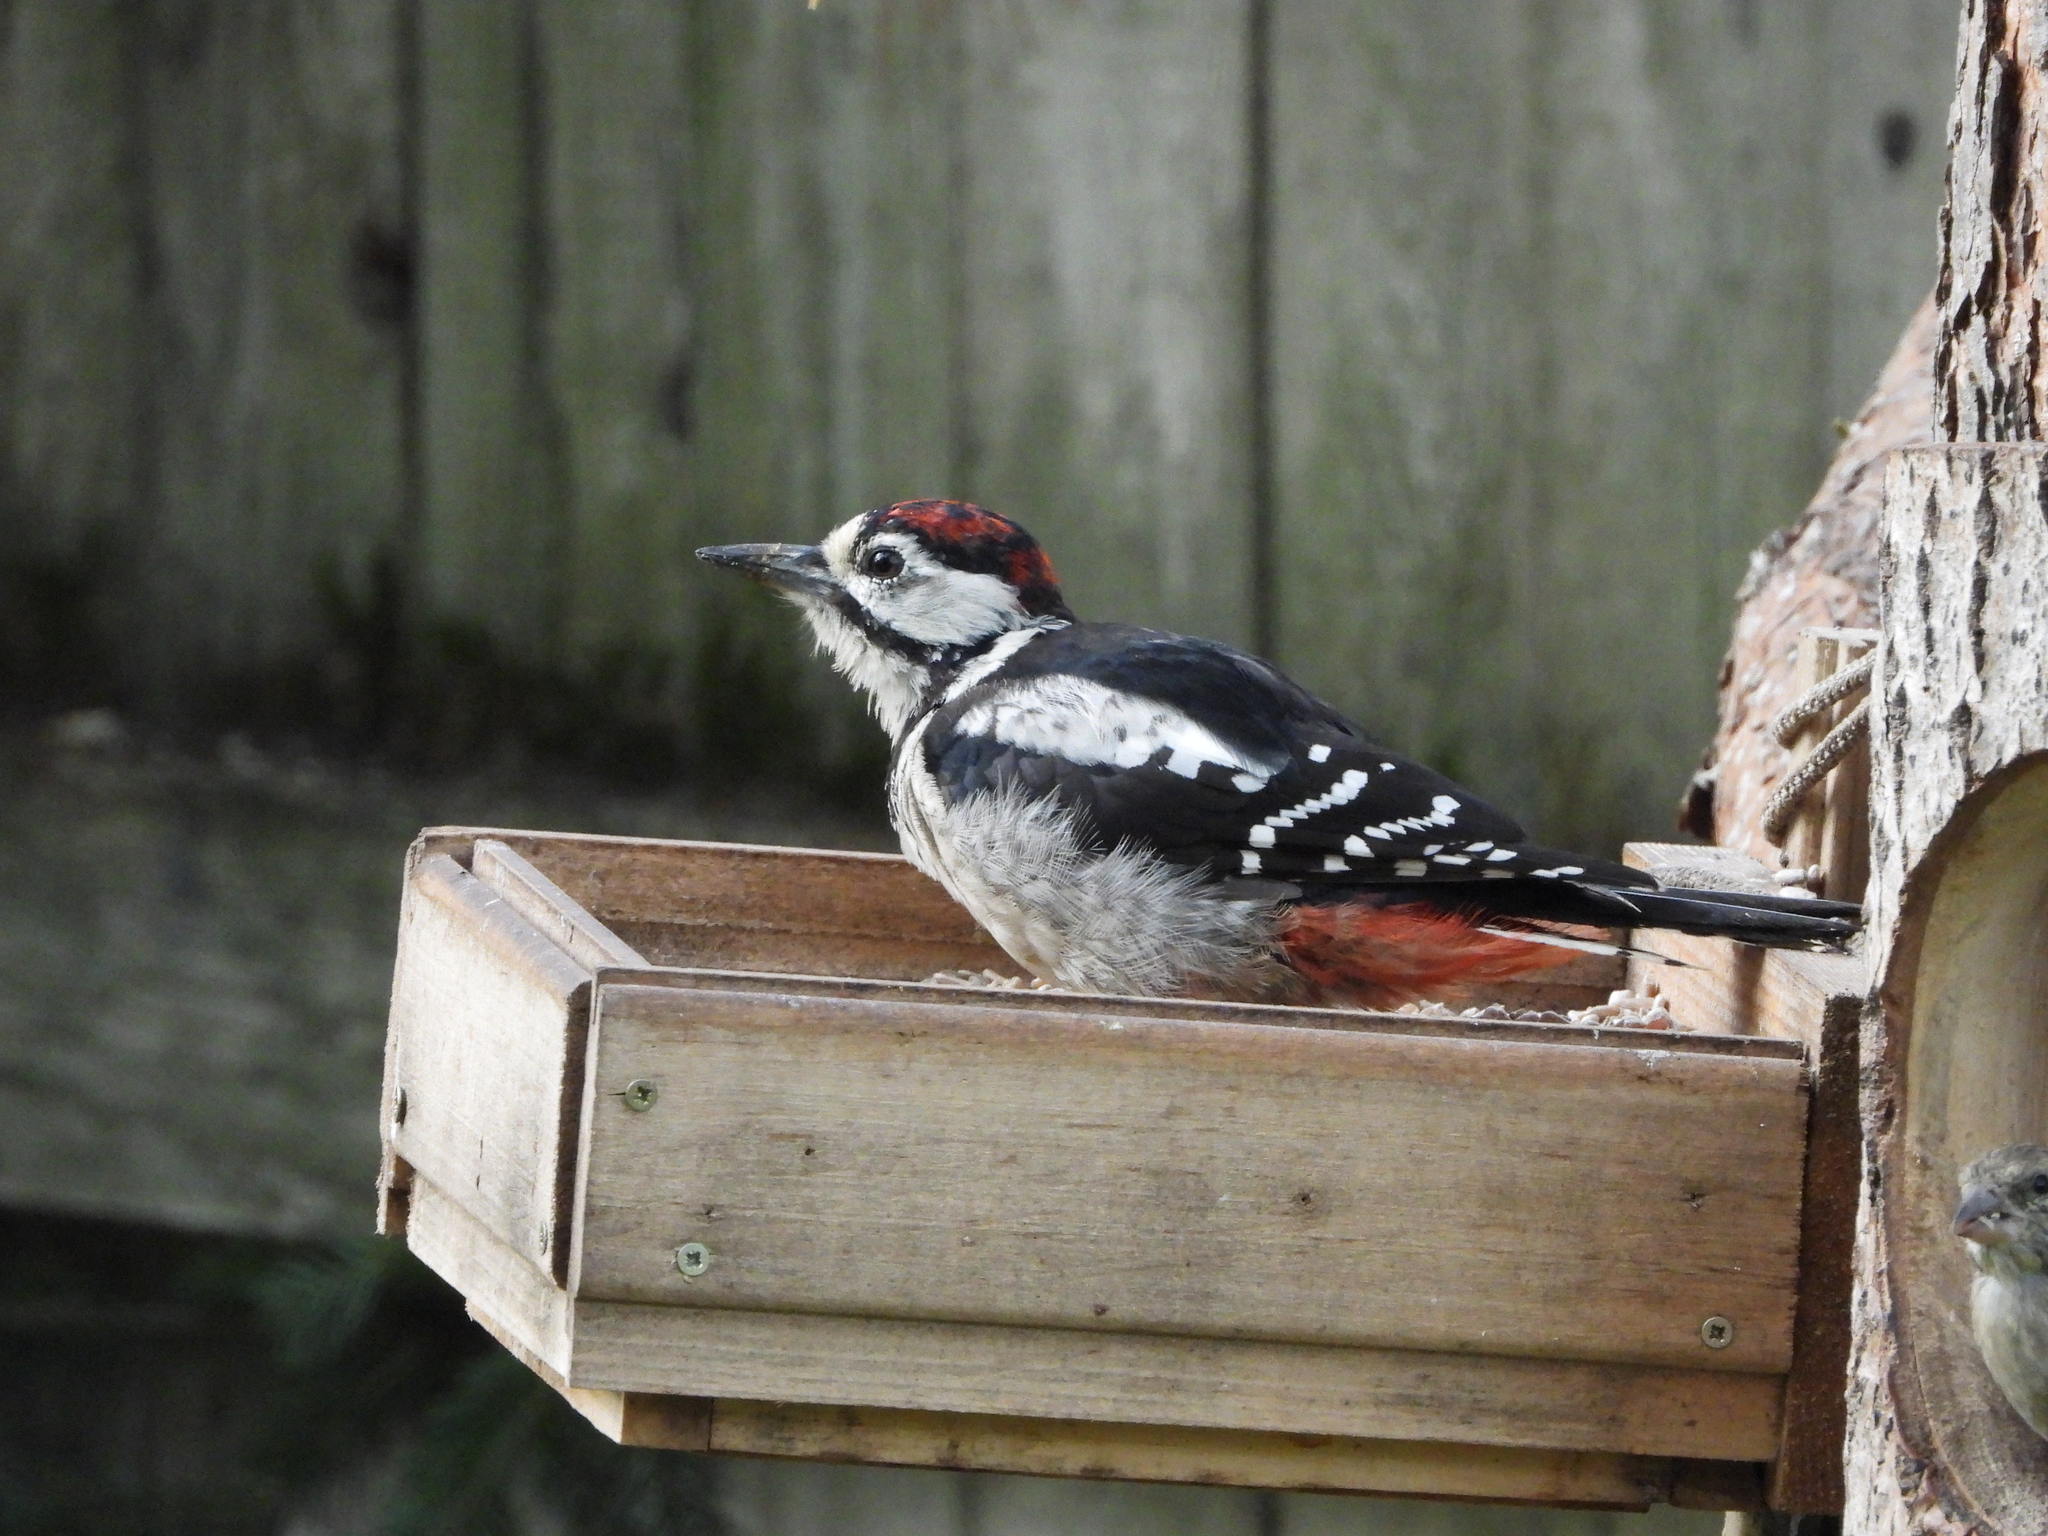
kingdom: Animalia
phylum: Chordata
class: Aves
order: Piciformes
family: Picidae
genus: Dendrocopos
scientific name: Dendrocopos major
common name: Great spotted woodpecker
